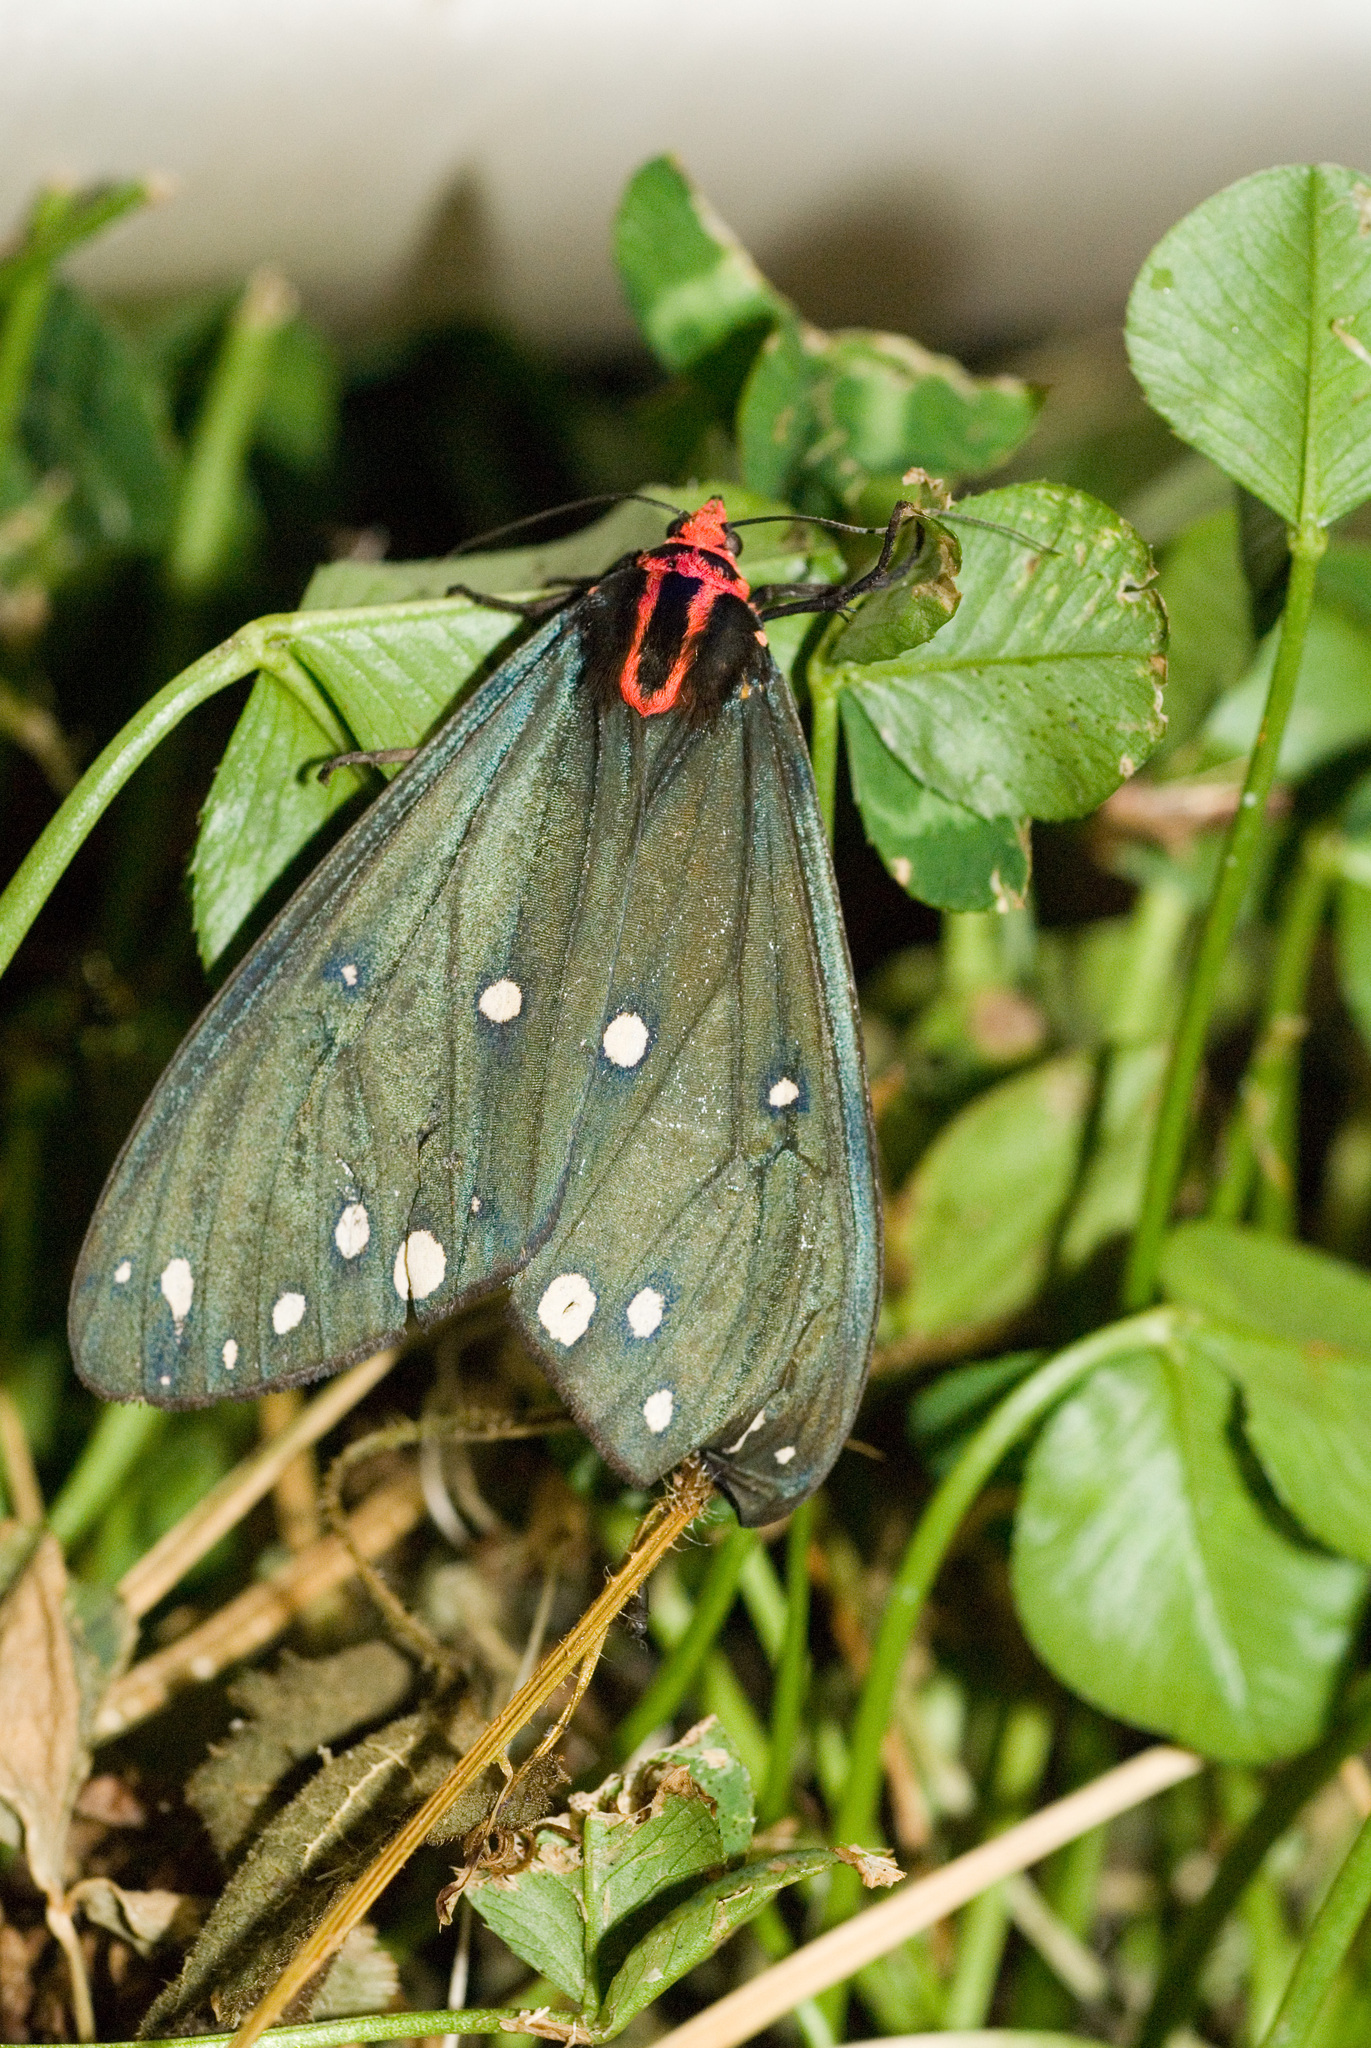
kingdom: Animalia
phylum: Arthropoda
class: Insecta
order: Lepidoptera
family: Erebidae
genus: Taicallimorpha
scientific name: Taicallimorpha albipuncta
